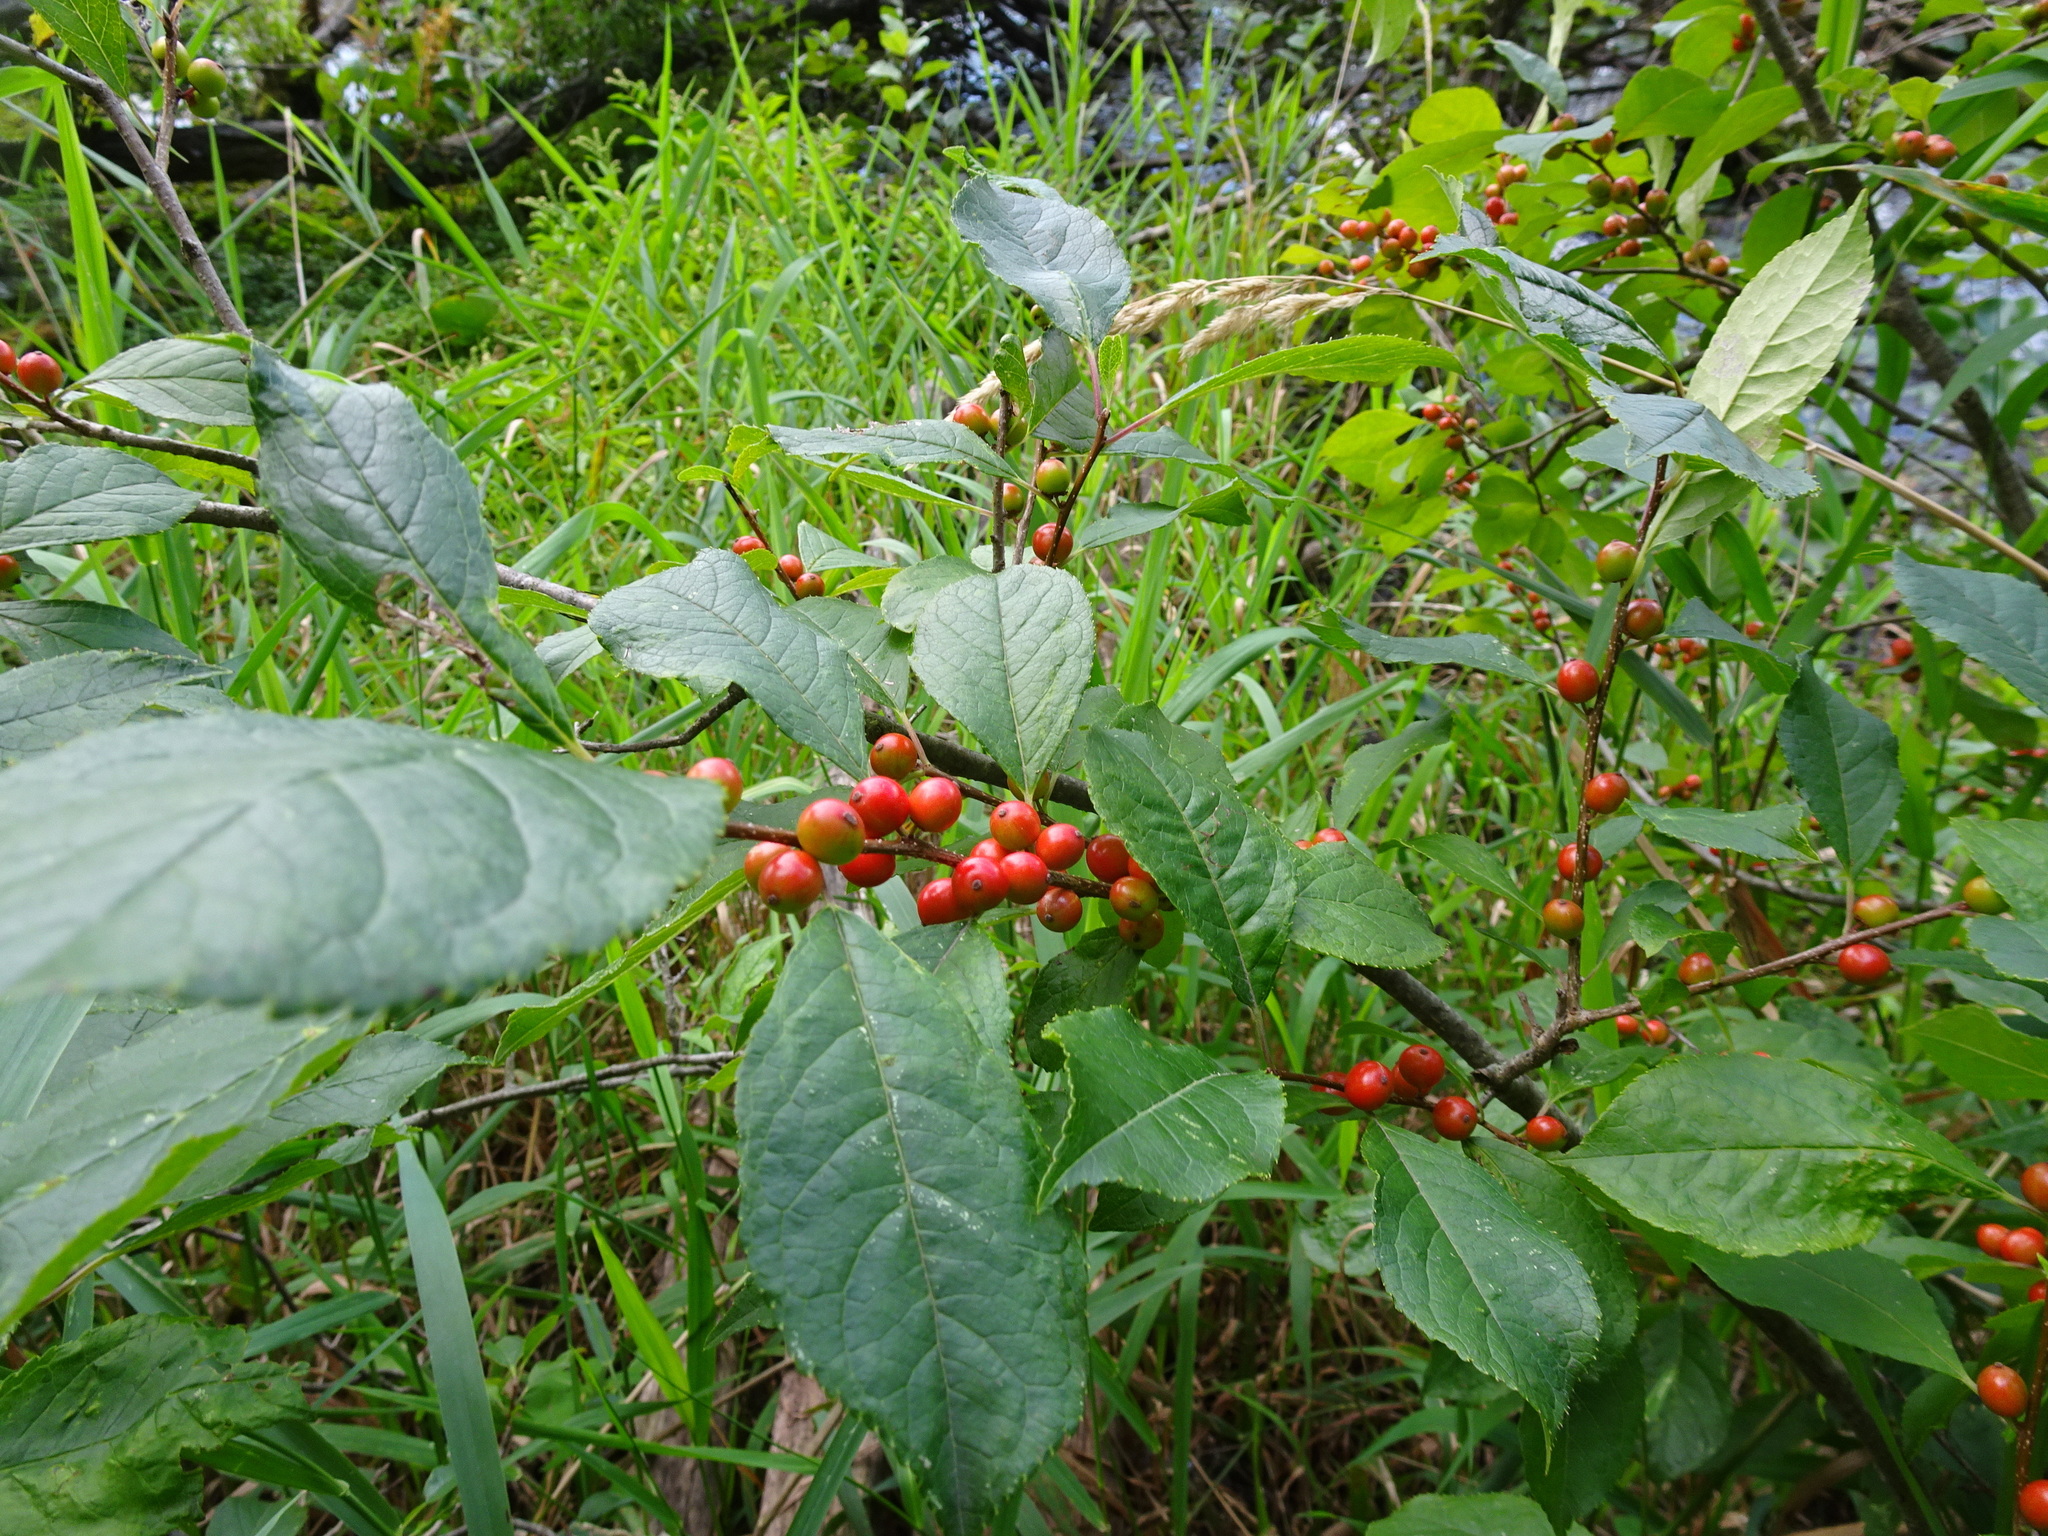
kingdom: Plantae
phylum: Tracheophyta
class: Magnoliopsida
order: Aquifoliales
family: Aquifoliaceae
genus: Ilex
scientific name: Ilex verticillata
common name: Virginia winterberry
